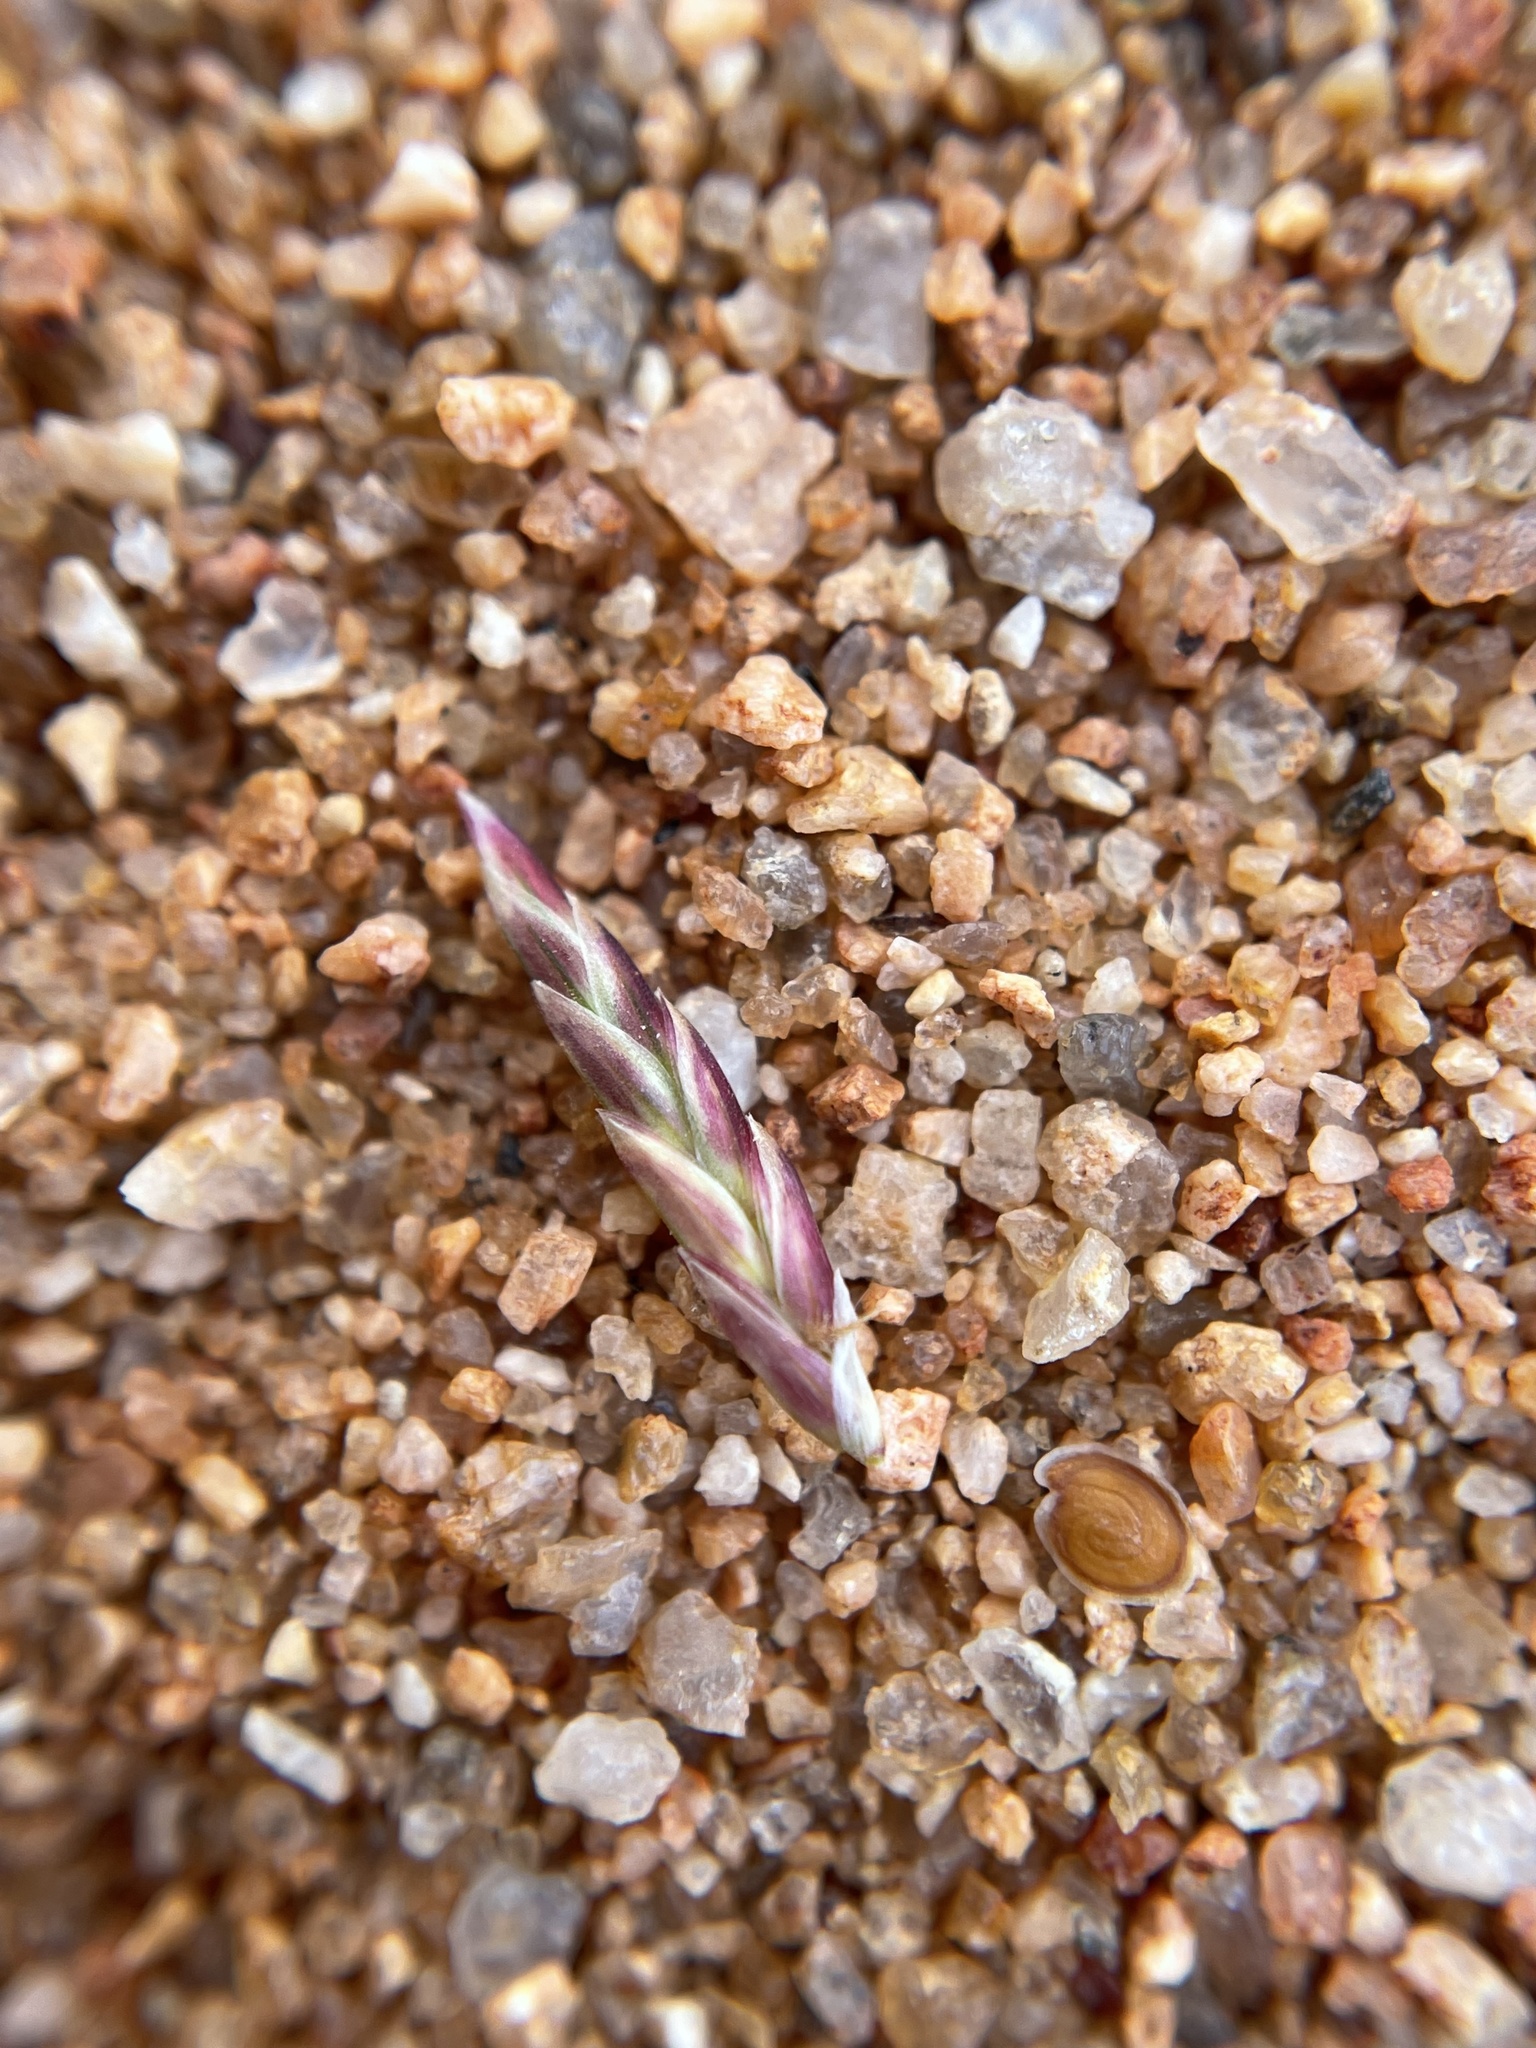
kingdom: Plantae
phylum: Tracheophyta
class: Liliopsida
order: Poales
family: Poaceae
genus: Cladoraphis
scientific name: Cladoraphis spinosa
